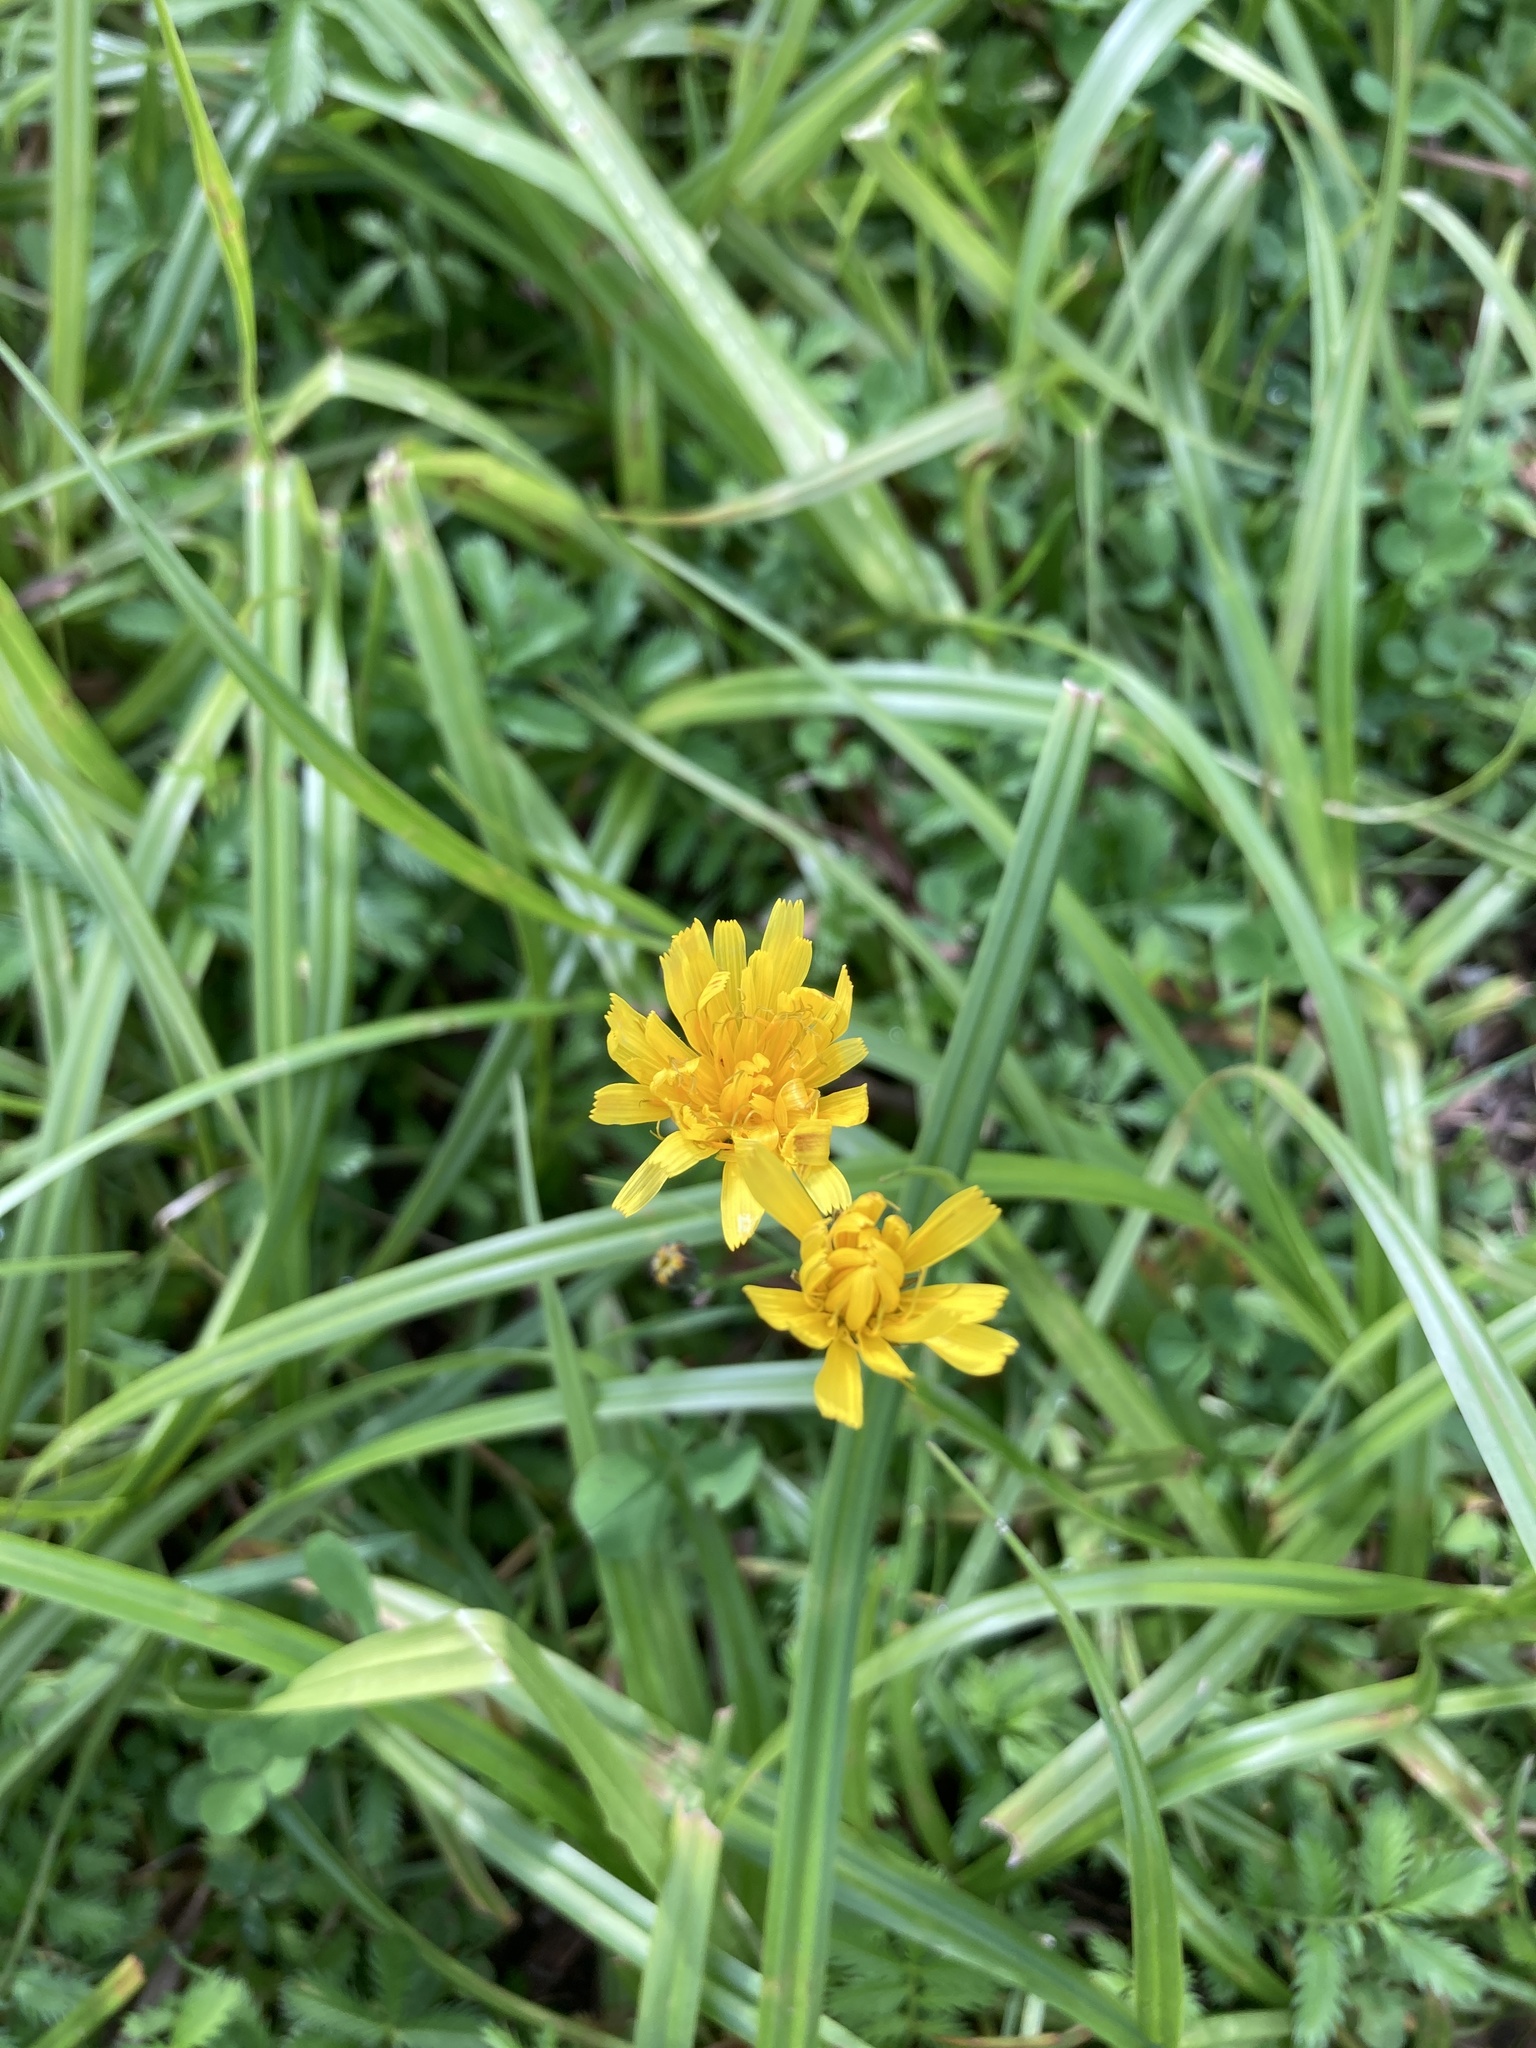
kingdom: Plantae
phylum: Tracheophyta
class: Magnoliopsida
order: Asterales
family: Asteraceae
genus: Scorzoneroides
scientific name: Scorzoneroides autumnalis
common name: Autumn hawkbit
